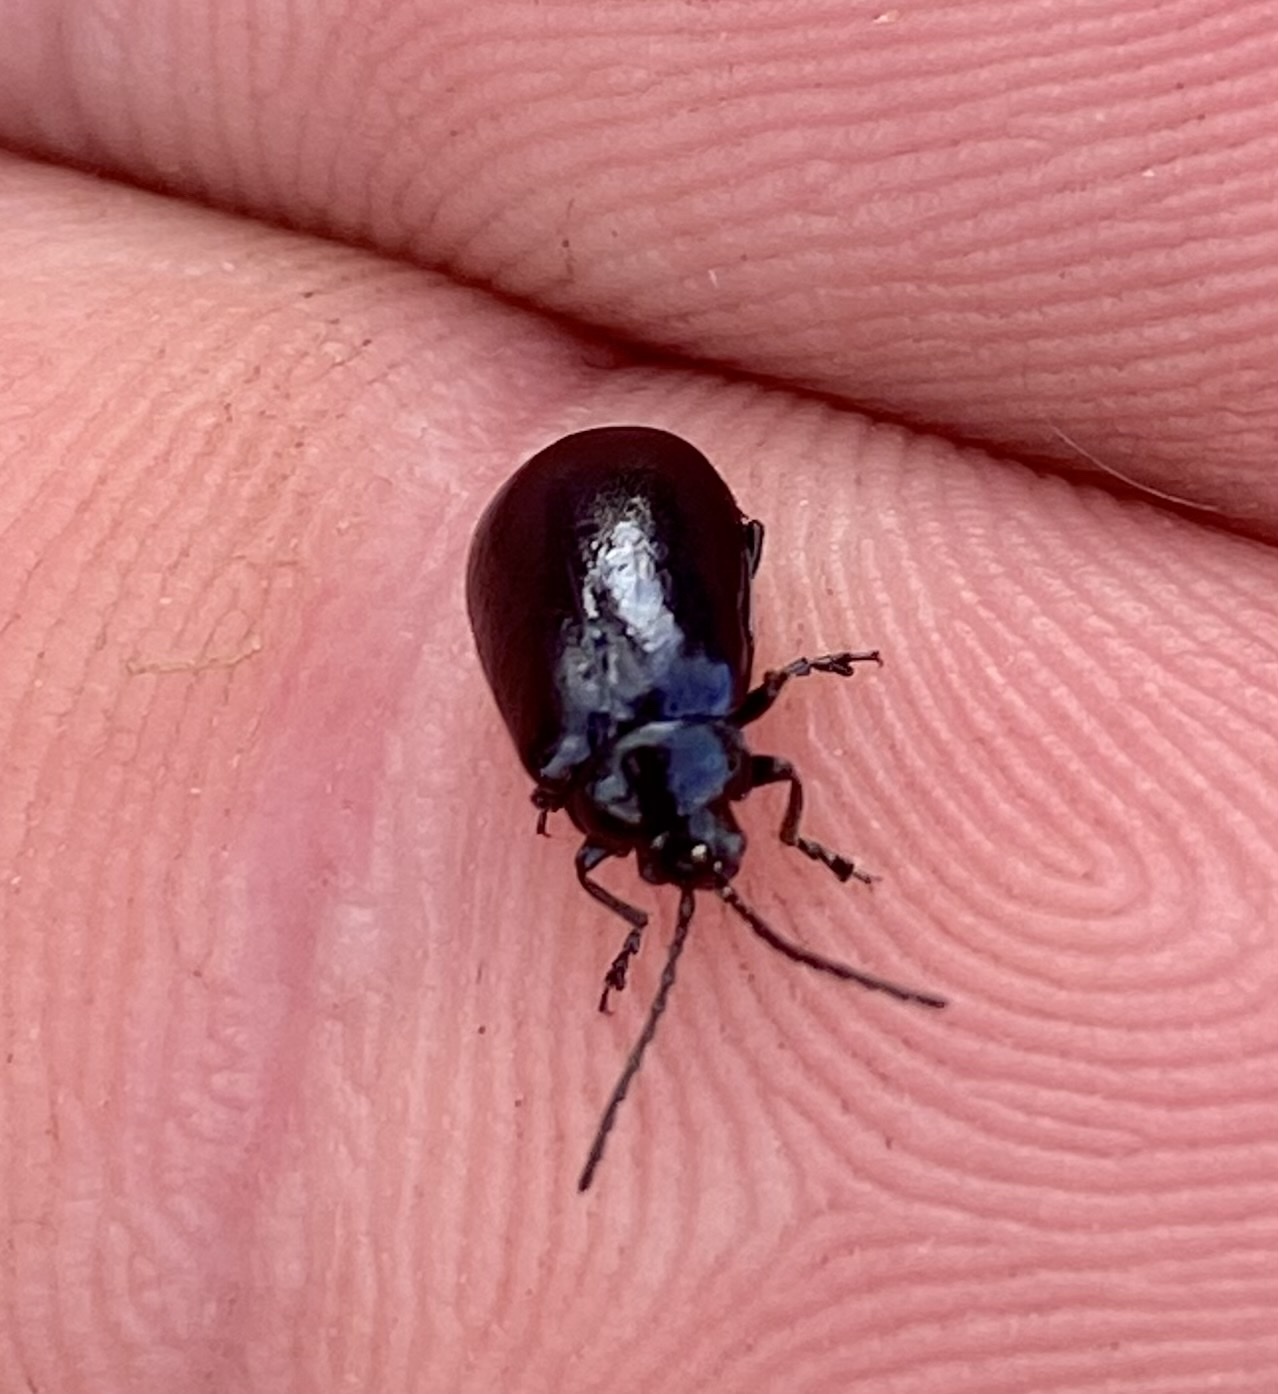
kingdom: Animalia
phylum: Arthropoda
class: Insecta
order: Coleoptera
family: Chrysomelidae
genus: Agelastica
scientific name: Agelastica alni
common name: Alder leaf beetle
